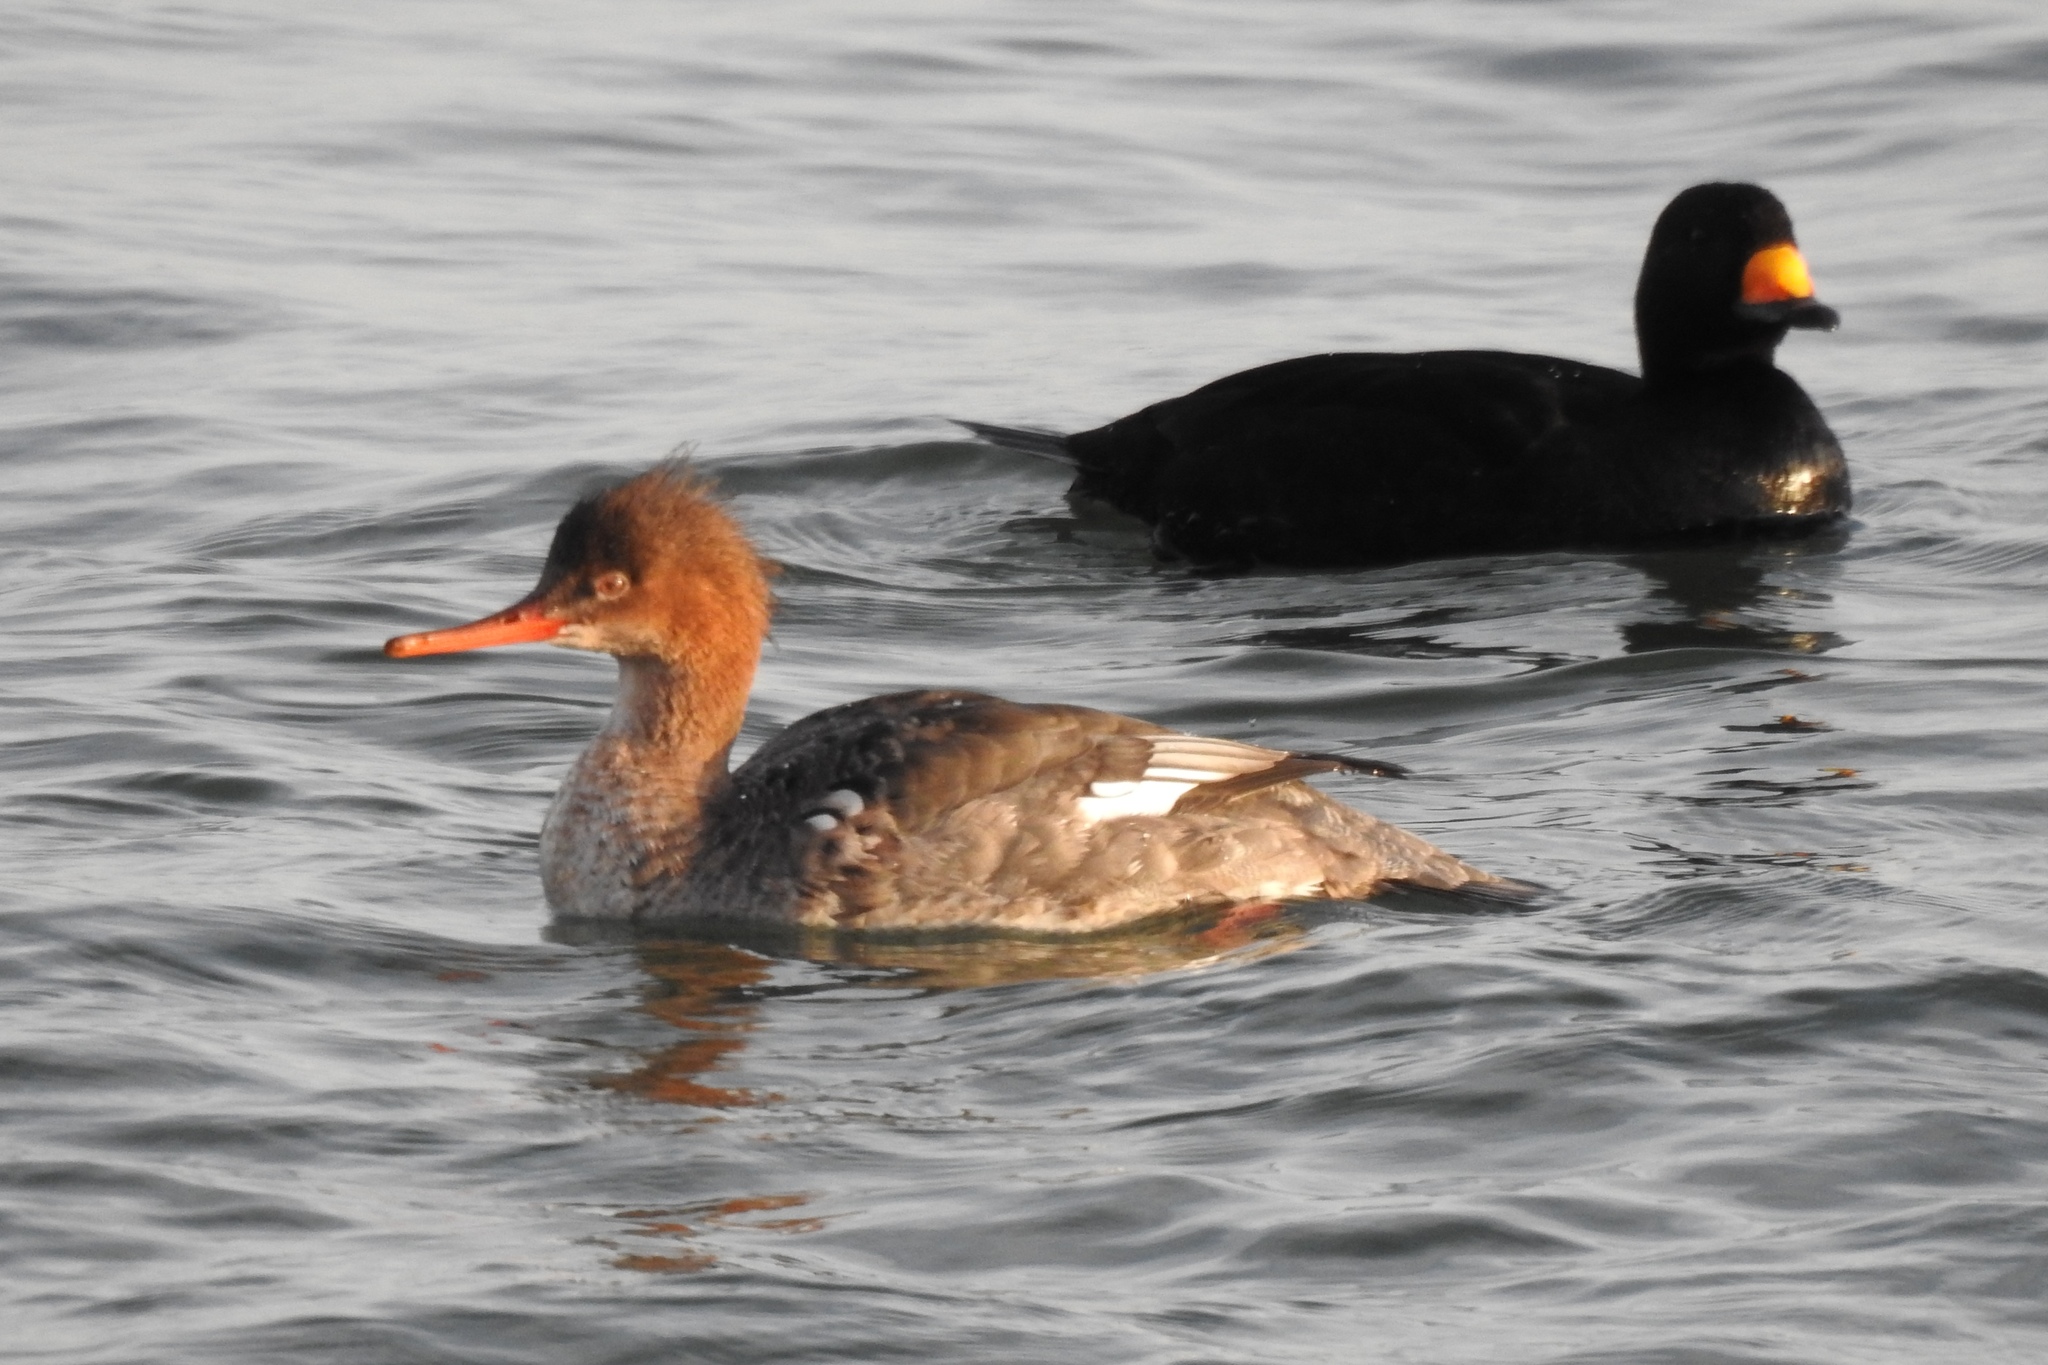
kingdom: Animalia
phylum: Chordata
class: Aves
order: Anseriformes
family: Anatidae
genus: Mergus
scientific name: Mergus serrator
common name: Red-breasted merganser
